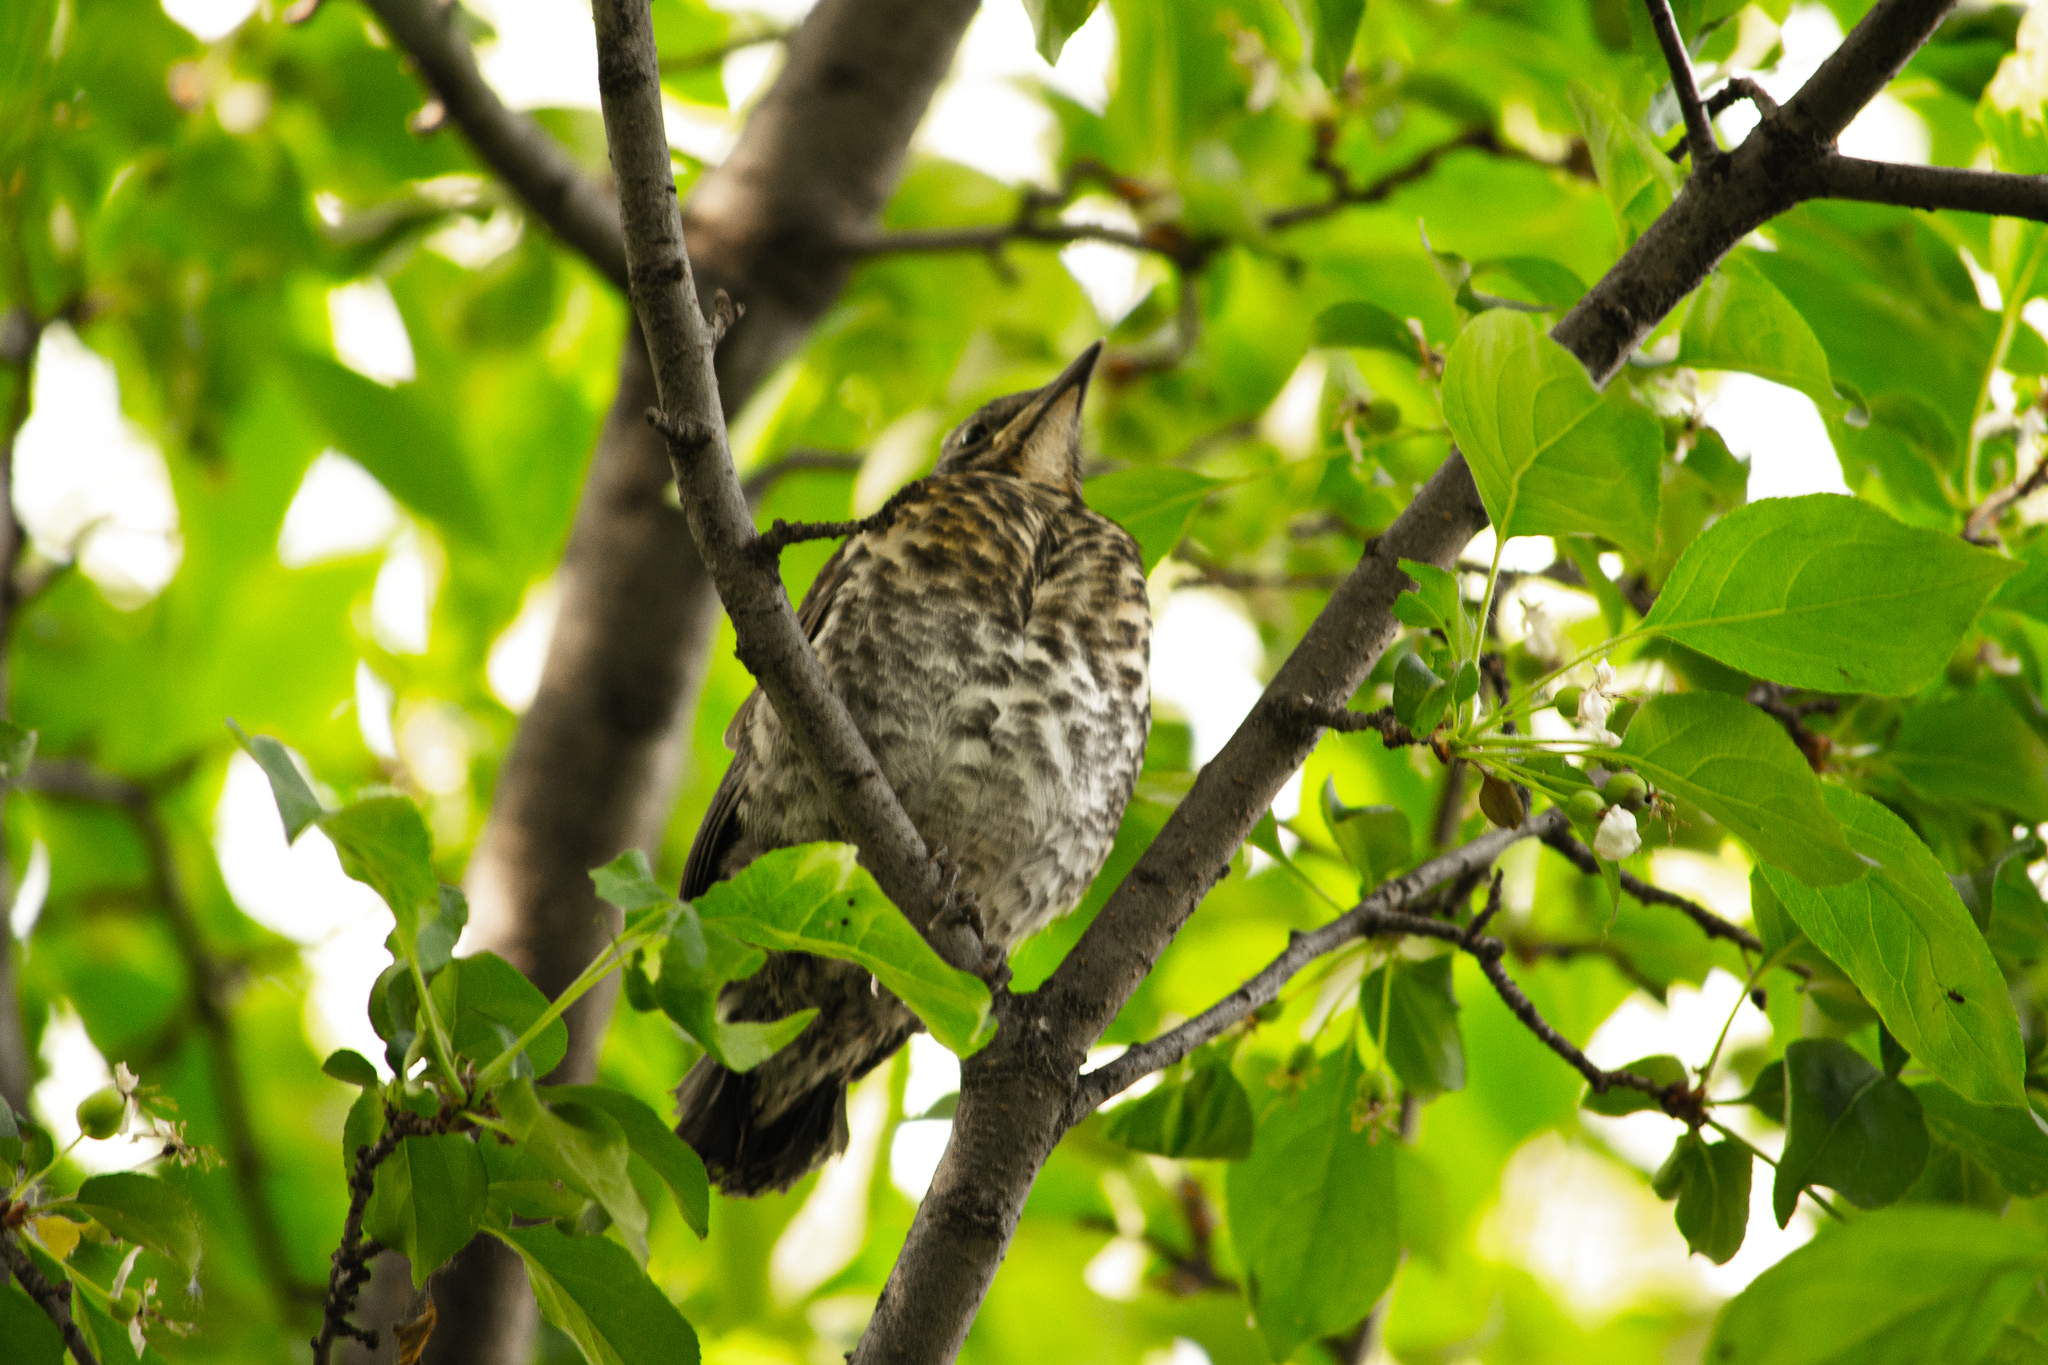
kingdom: Animalia
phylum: Chordata
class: Aves
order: Passeriformes
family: Turdidae
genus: Turdus
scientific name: Turdus pilaris
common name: Fieldfare
